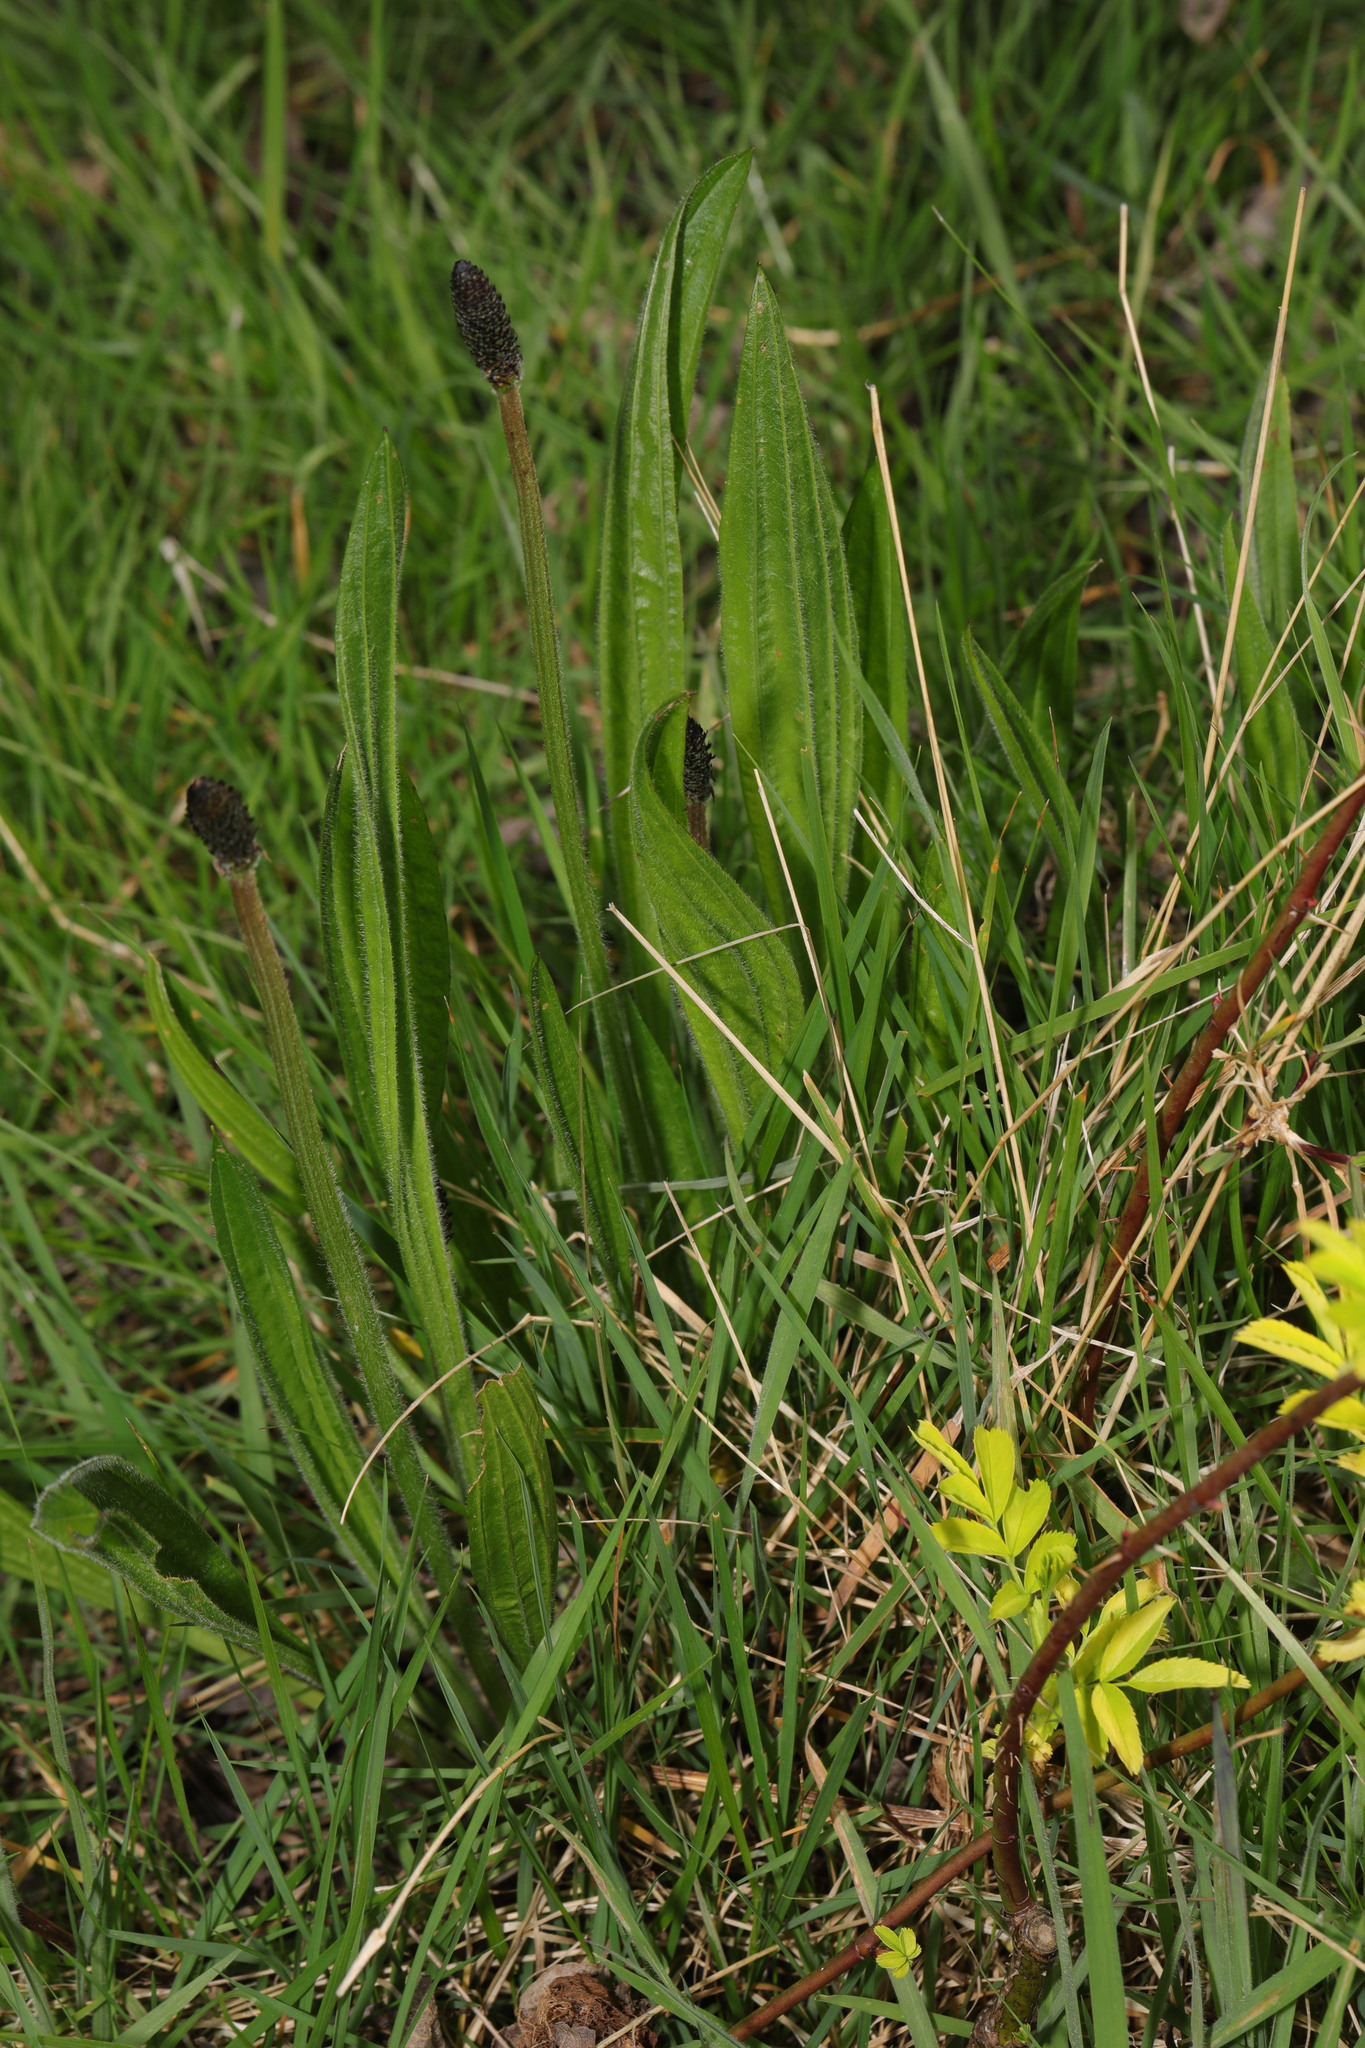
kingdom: Plantae
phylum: Tracheophyta
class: Magnoliopsida
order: Lamiales
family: Plantaginaceae
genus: Plantago
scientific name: Plantago lanceolata
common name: Ribwort plantain
